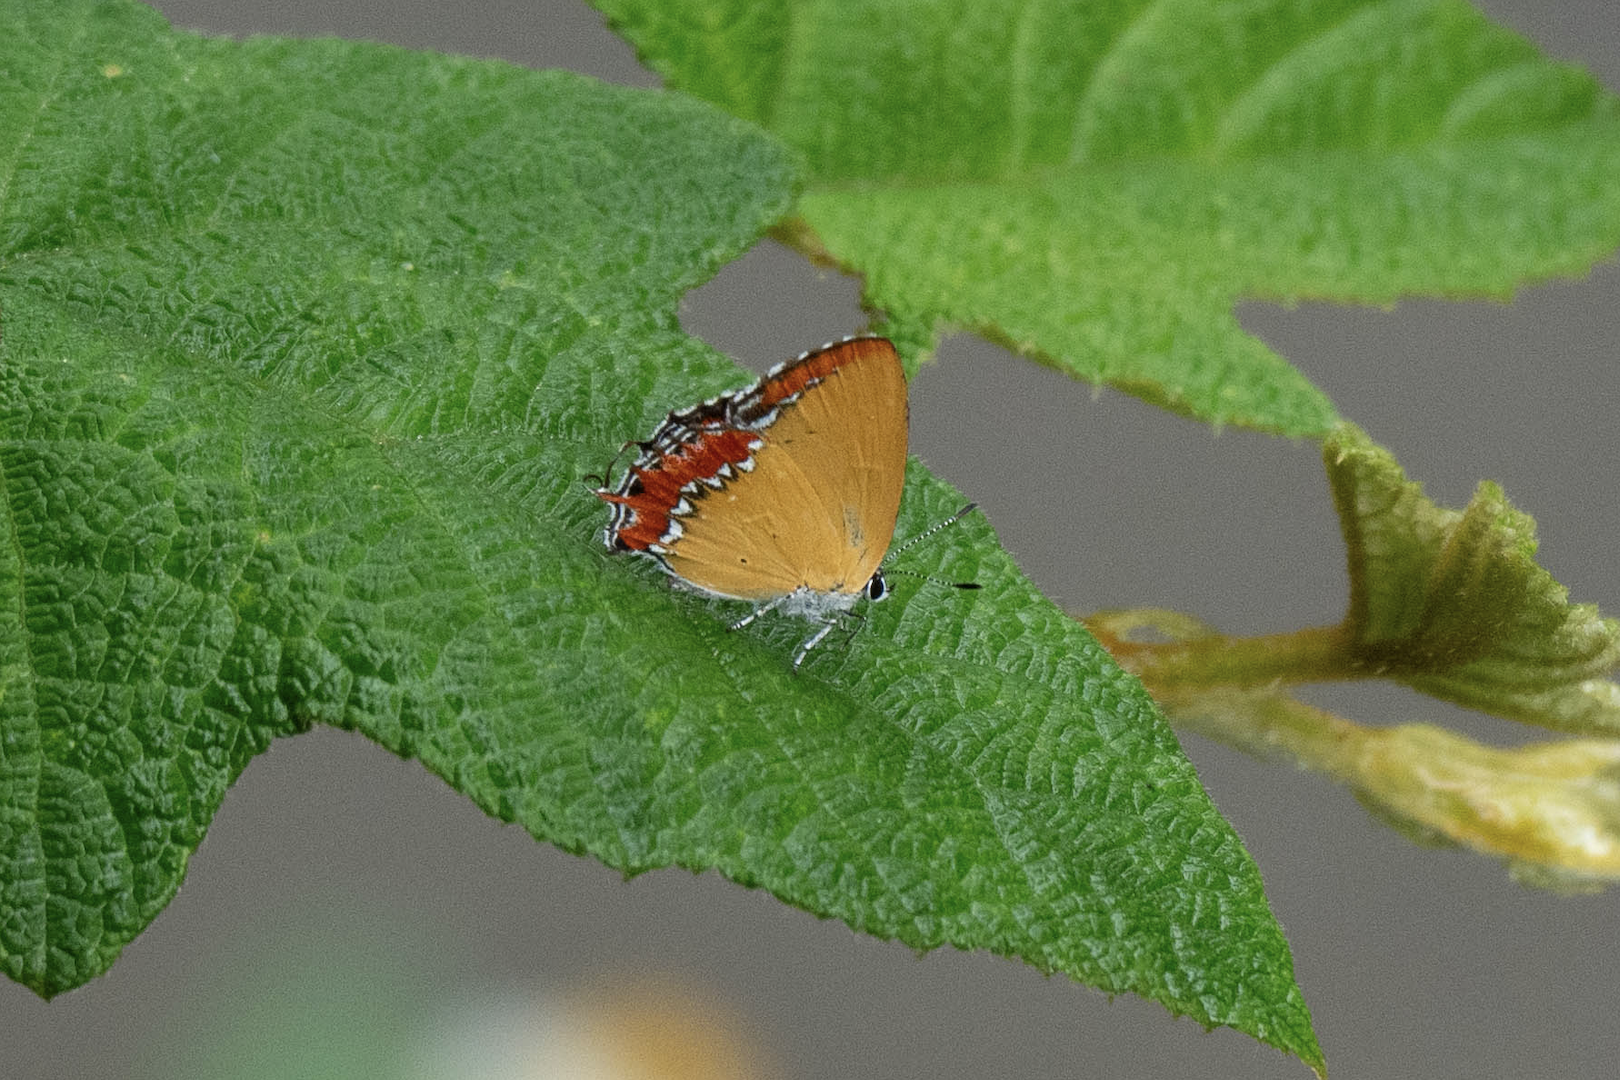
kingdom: Animalia
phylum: Arthropoda
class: Insecta
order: Lepidoptera
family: Lycaenidae
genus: Heliophorus
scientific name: Heliophorus epicles
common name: Purple sapphire
